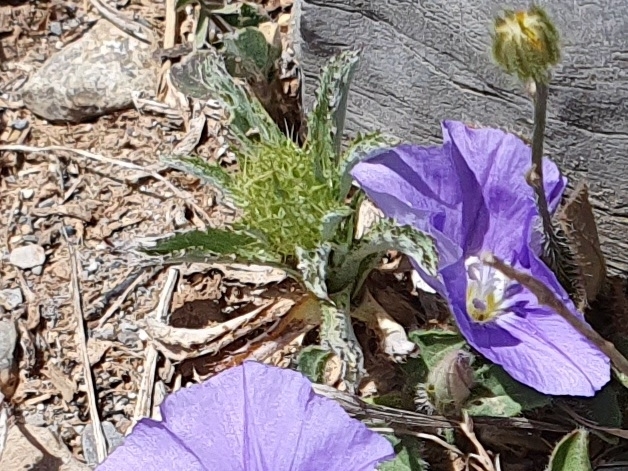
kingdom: Plantae
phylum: Tracheophyta
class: Magnoliopsida
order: Asterales
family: Asteraceae
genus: Atractylis
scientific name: Atractylis cancellata
